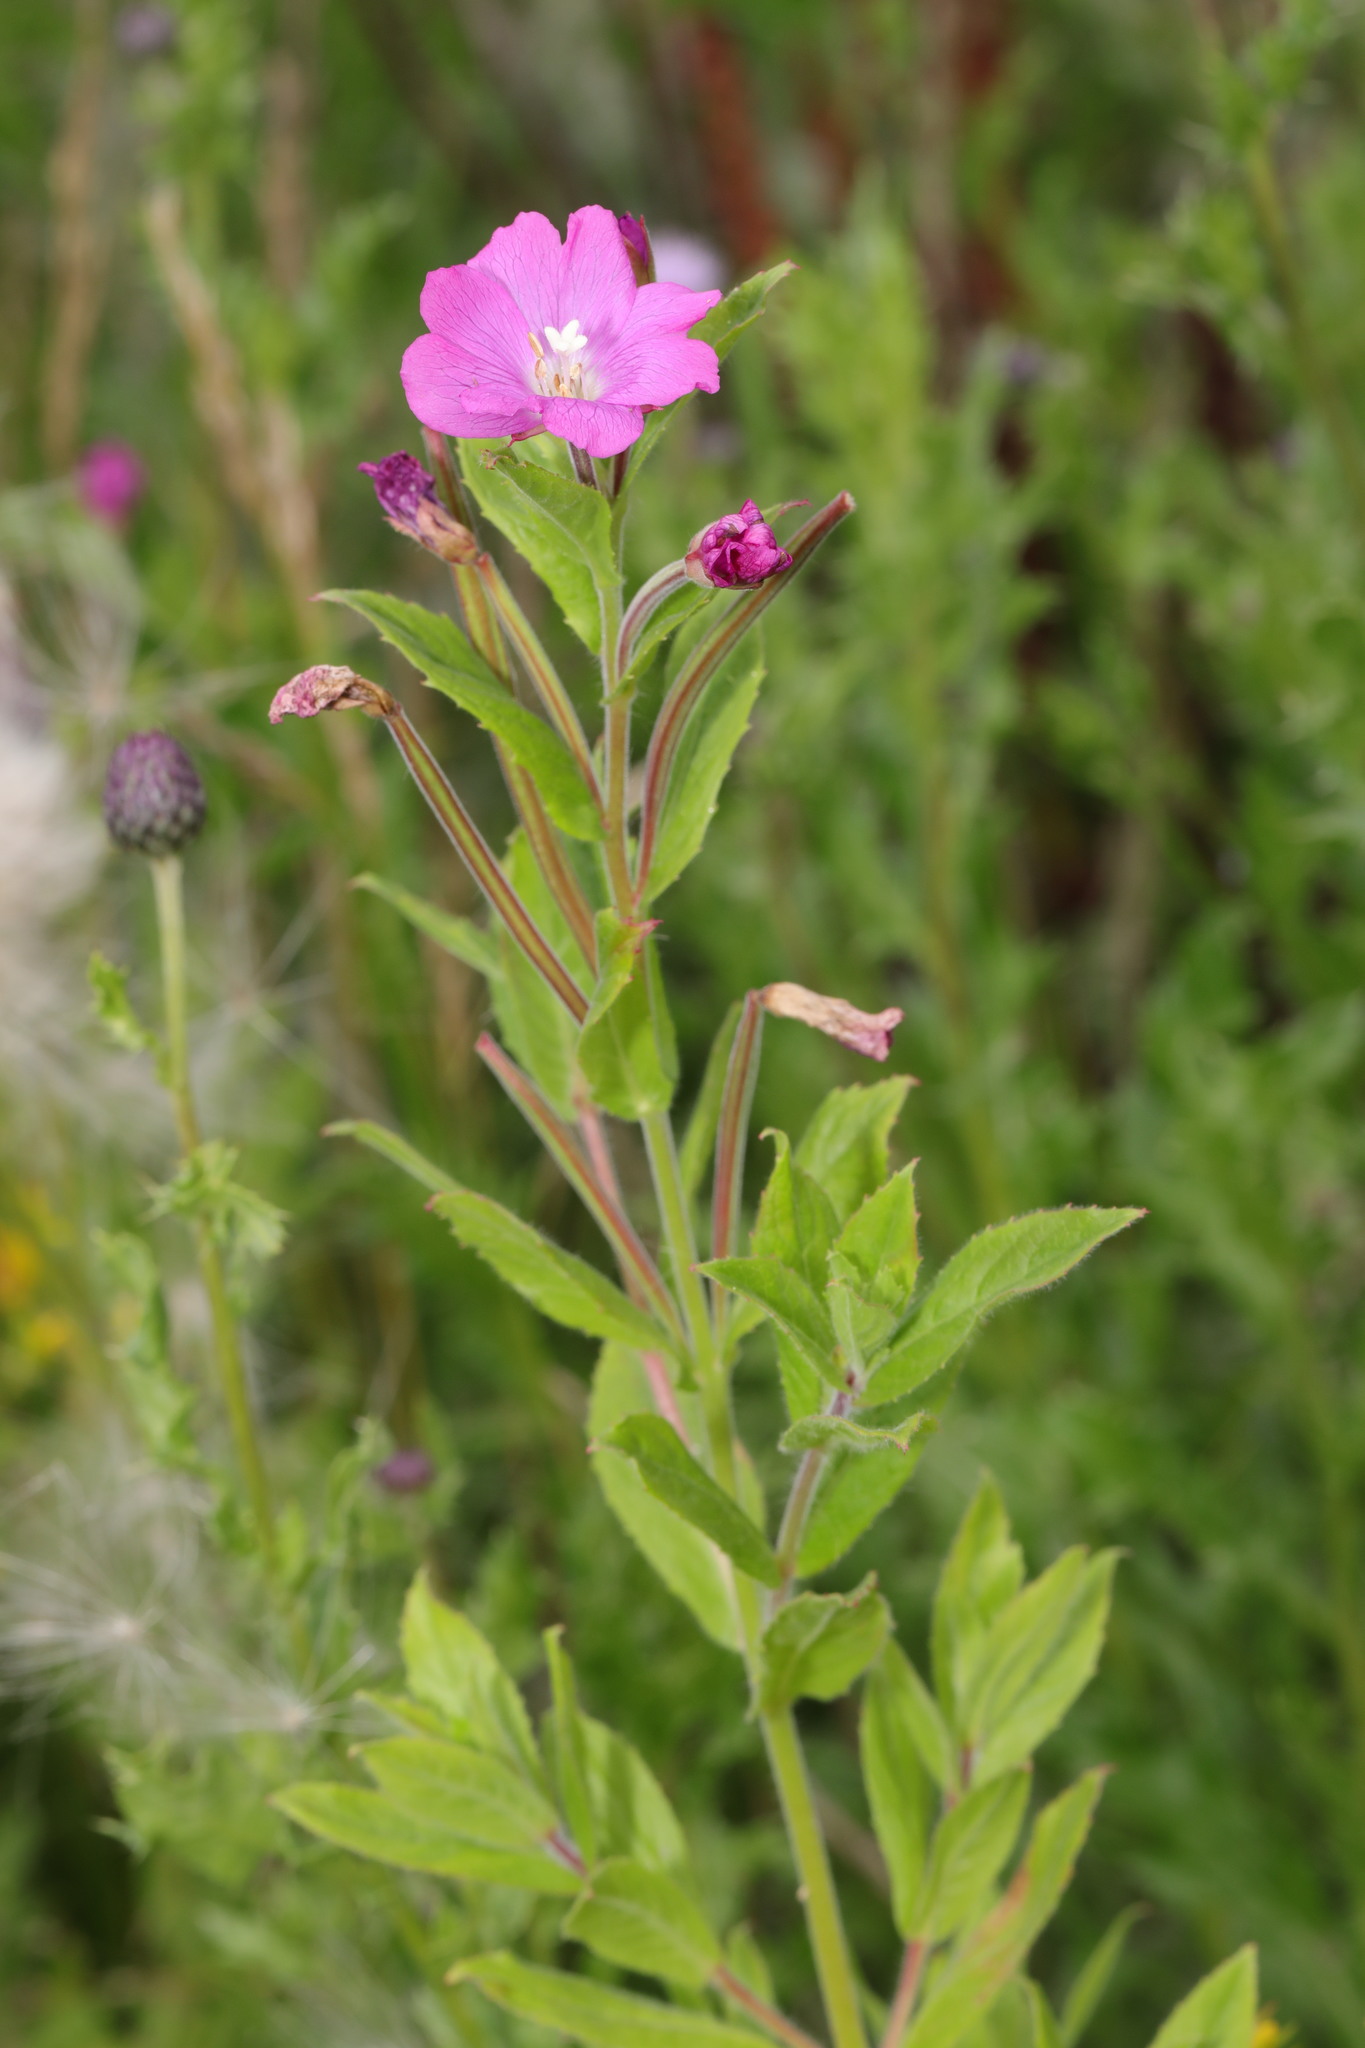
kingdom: Plantae
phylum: Tracheophyta
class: Magnoliopsida
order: Myrtales
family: Onagraceae
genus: Epilobium
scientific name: Epilobium hirsutum
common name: Great willowherb
